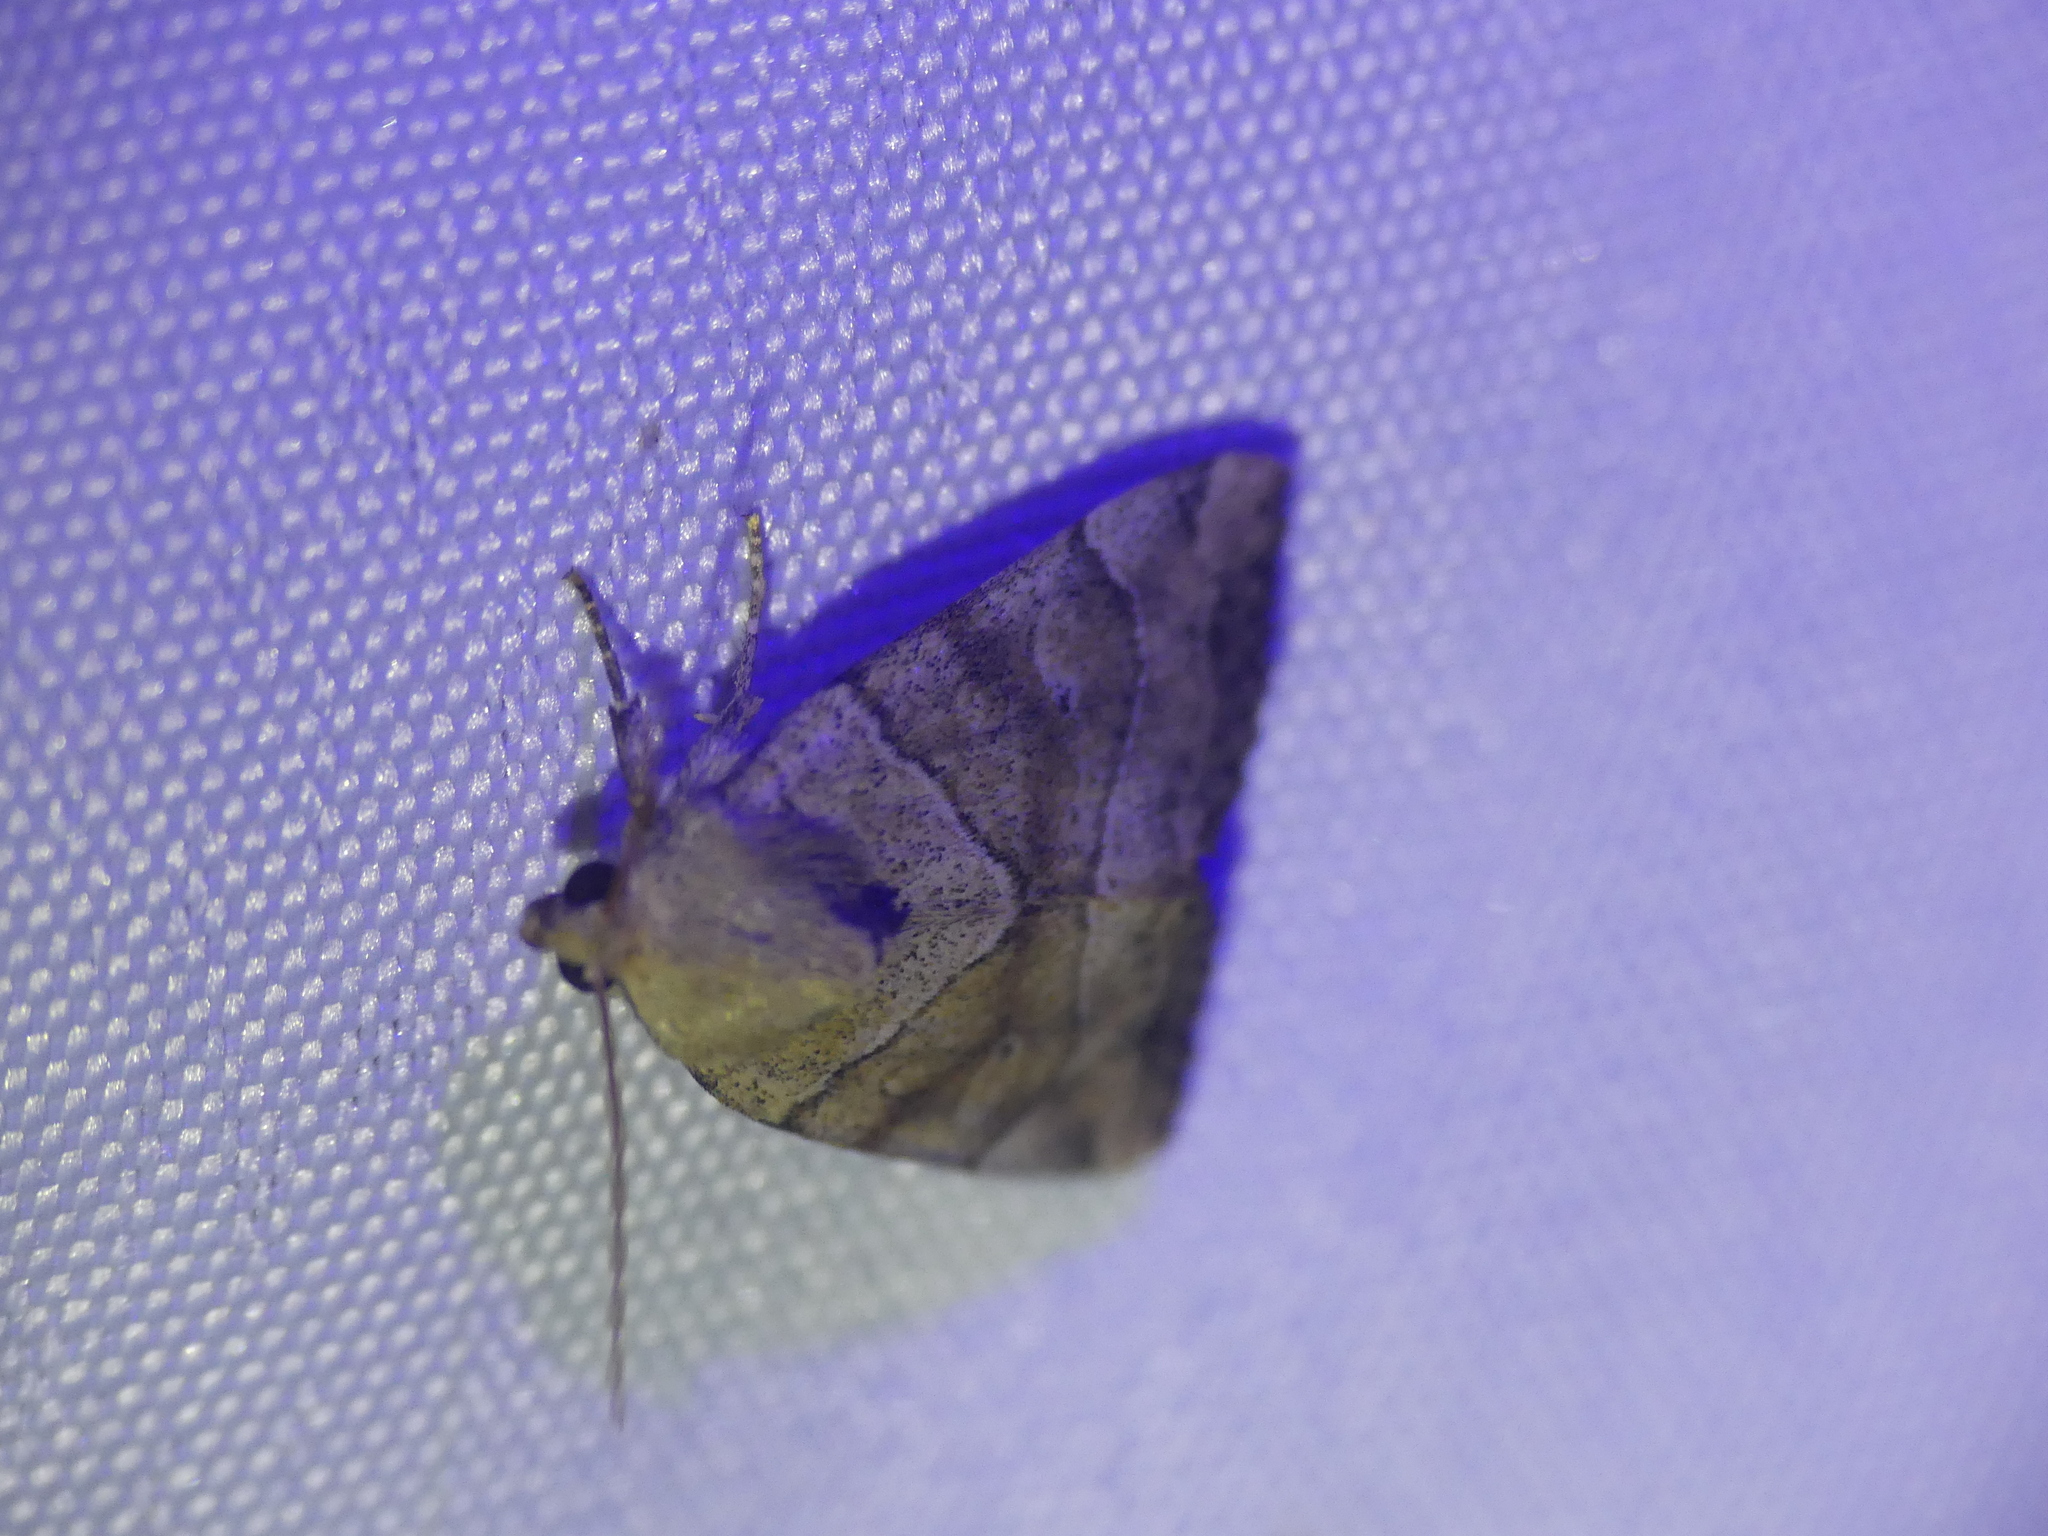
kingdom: Animalia
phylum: Arthropoda
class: Insecta
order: Lepidoptera
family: Noctuidae
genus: Cosmia
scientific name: Cosmia trapezina
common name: Dun-bar
